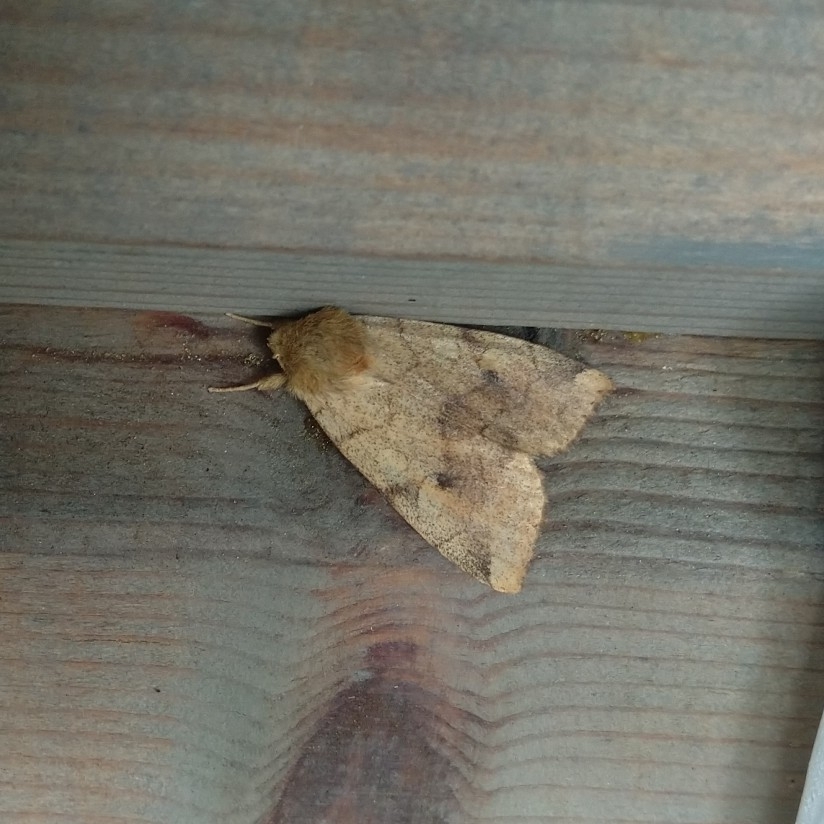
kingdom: Animalia
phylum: Arthropoda
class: Insecta
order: Lepidoptera
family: Noctuidae
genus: Enargia
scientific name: Enargia paleacea
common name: Angle-striped sallow
